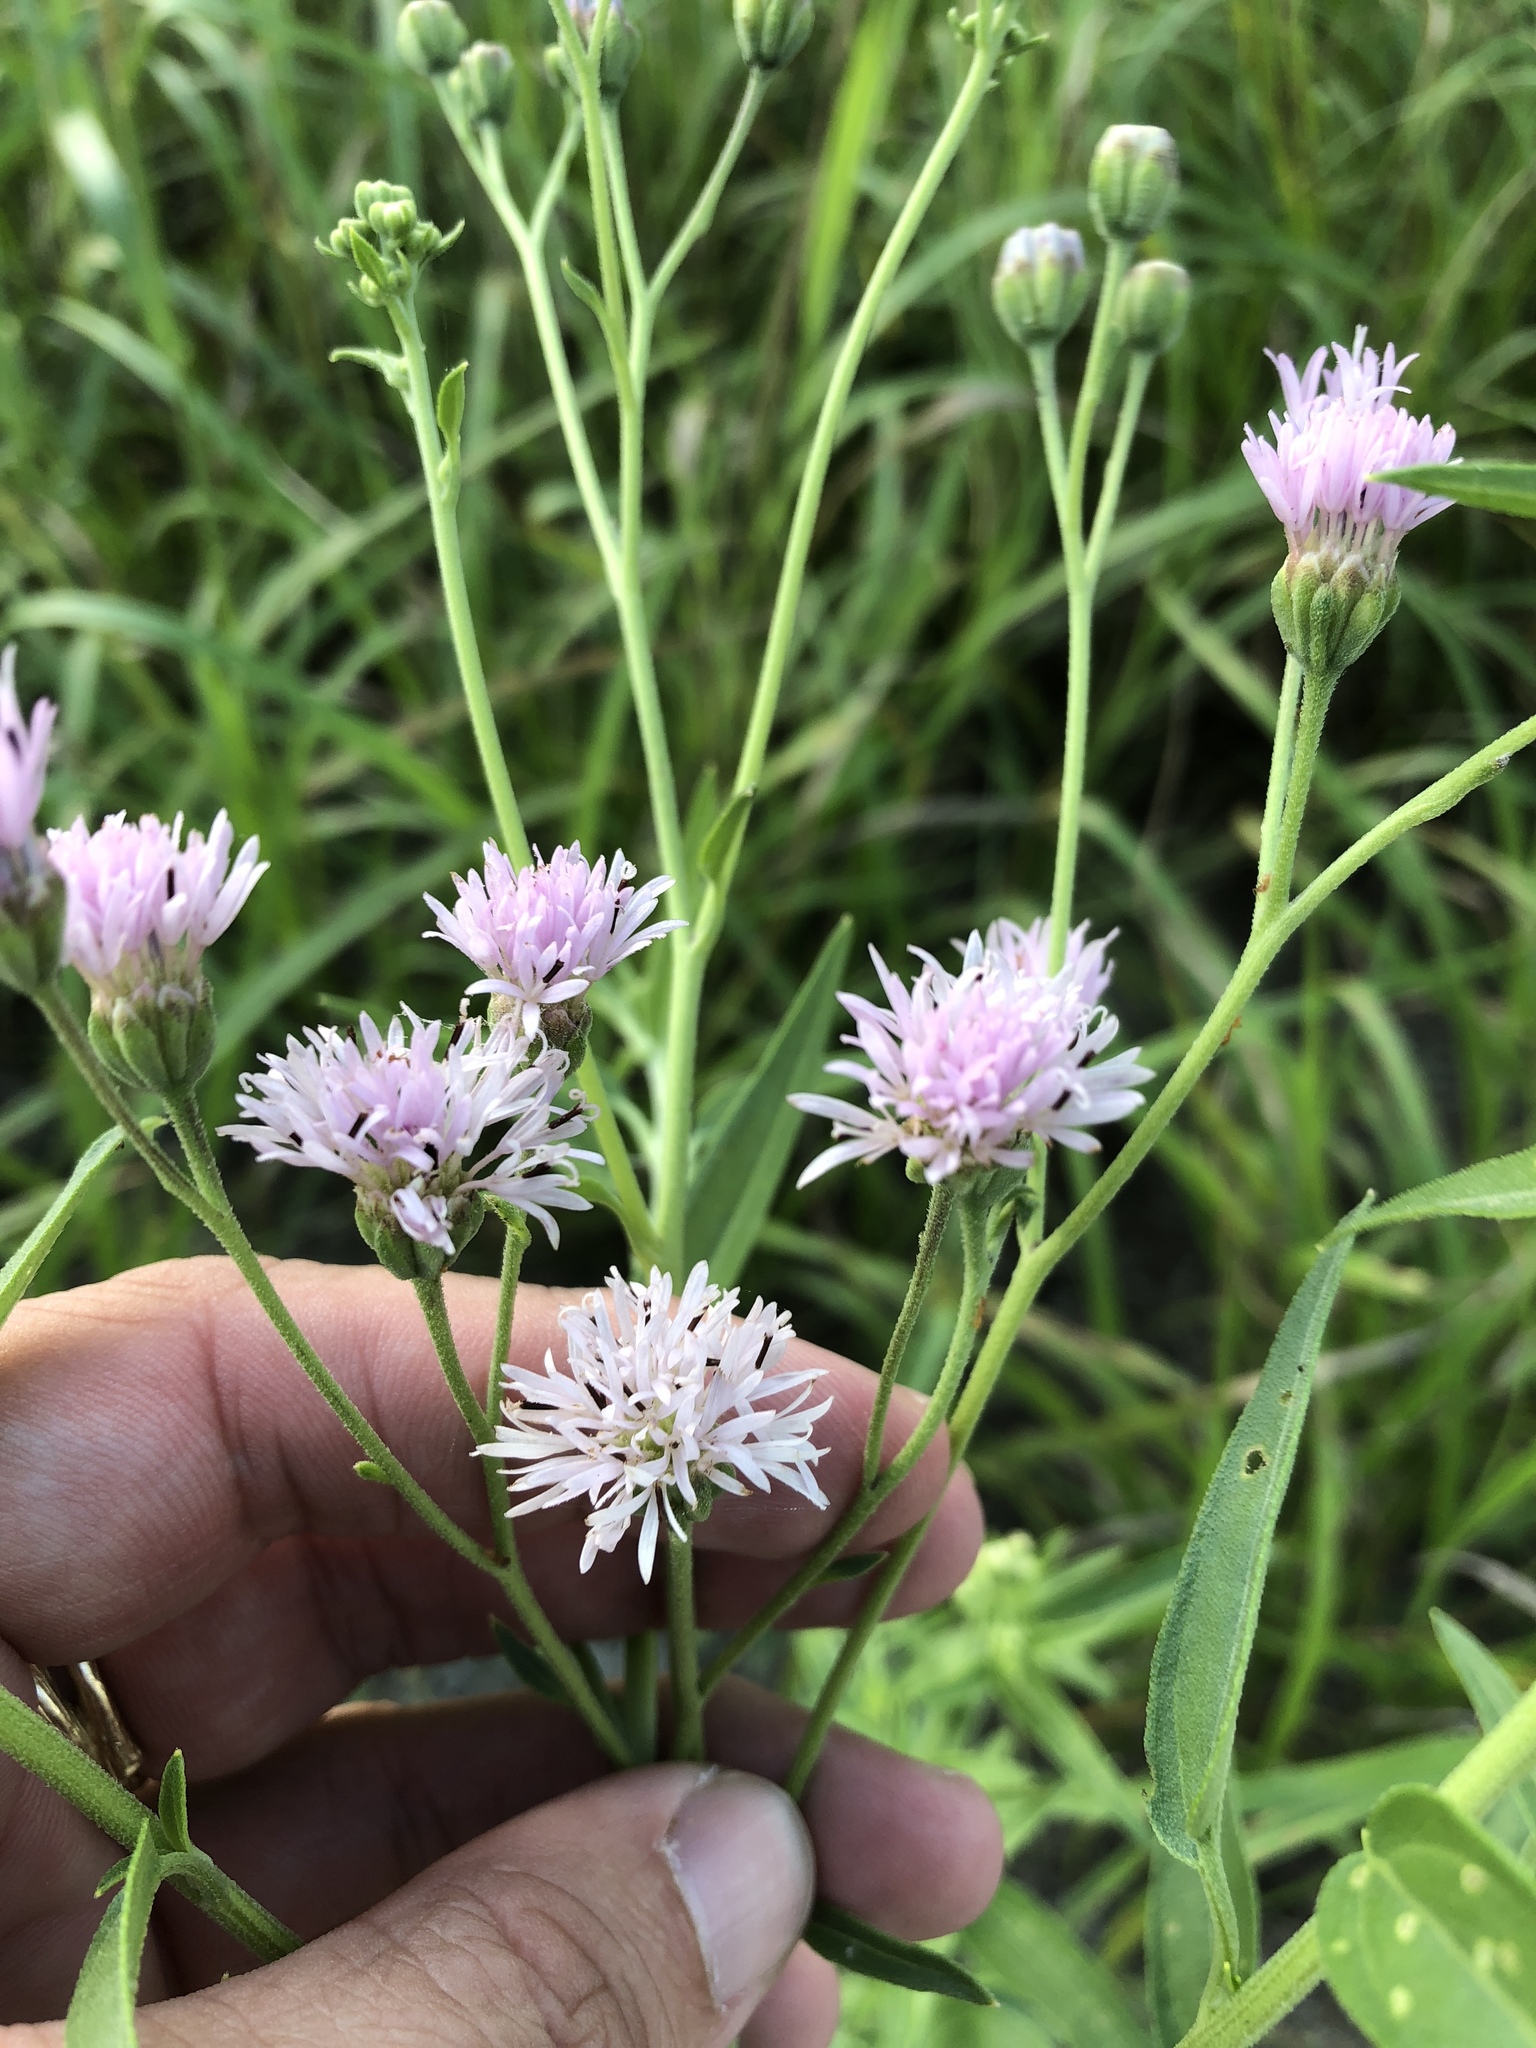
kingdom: Plantae
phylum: Tracheophyta
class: Magnoliopsida
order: Asterales
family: Asteraceae
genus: Palafoxia
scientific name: Palafoxia texana
